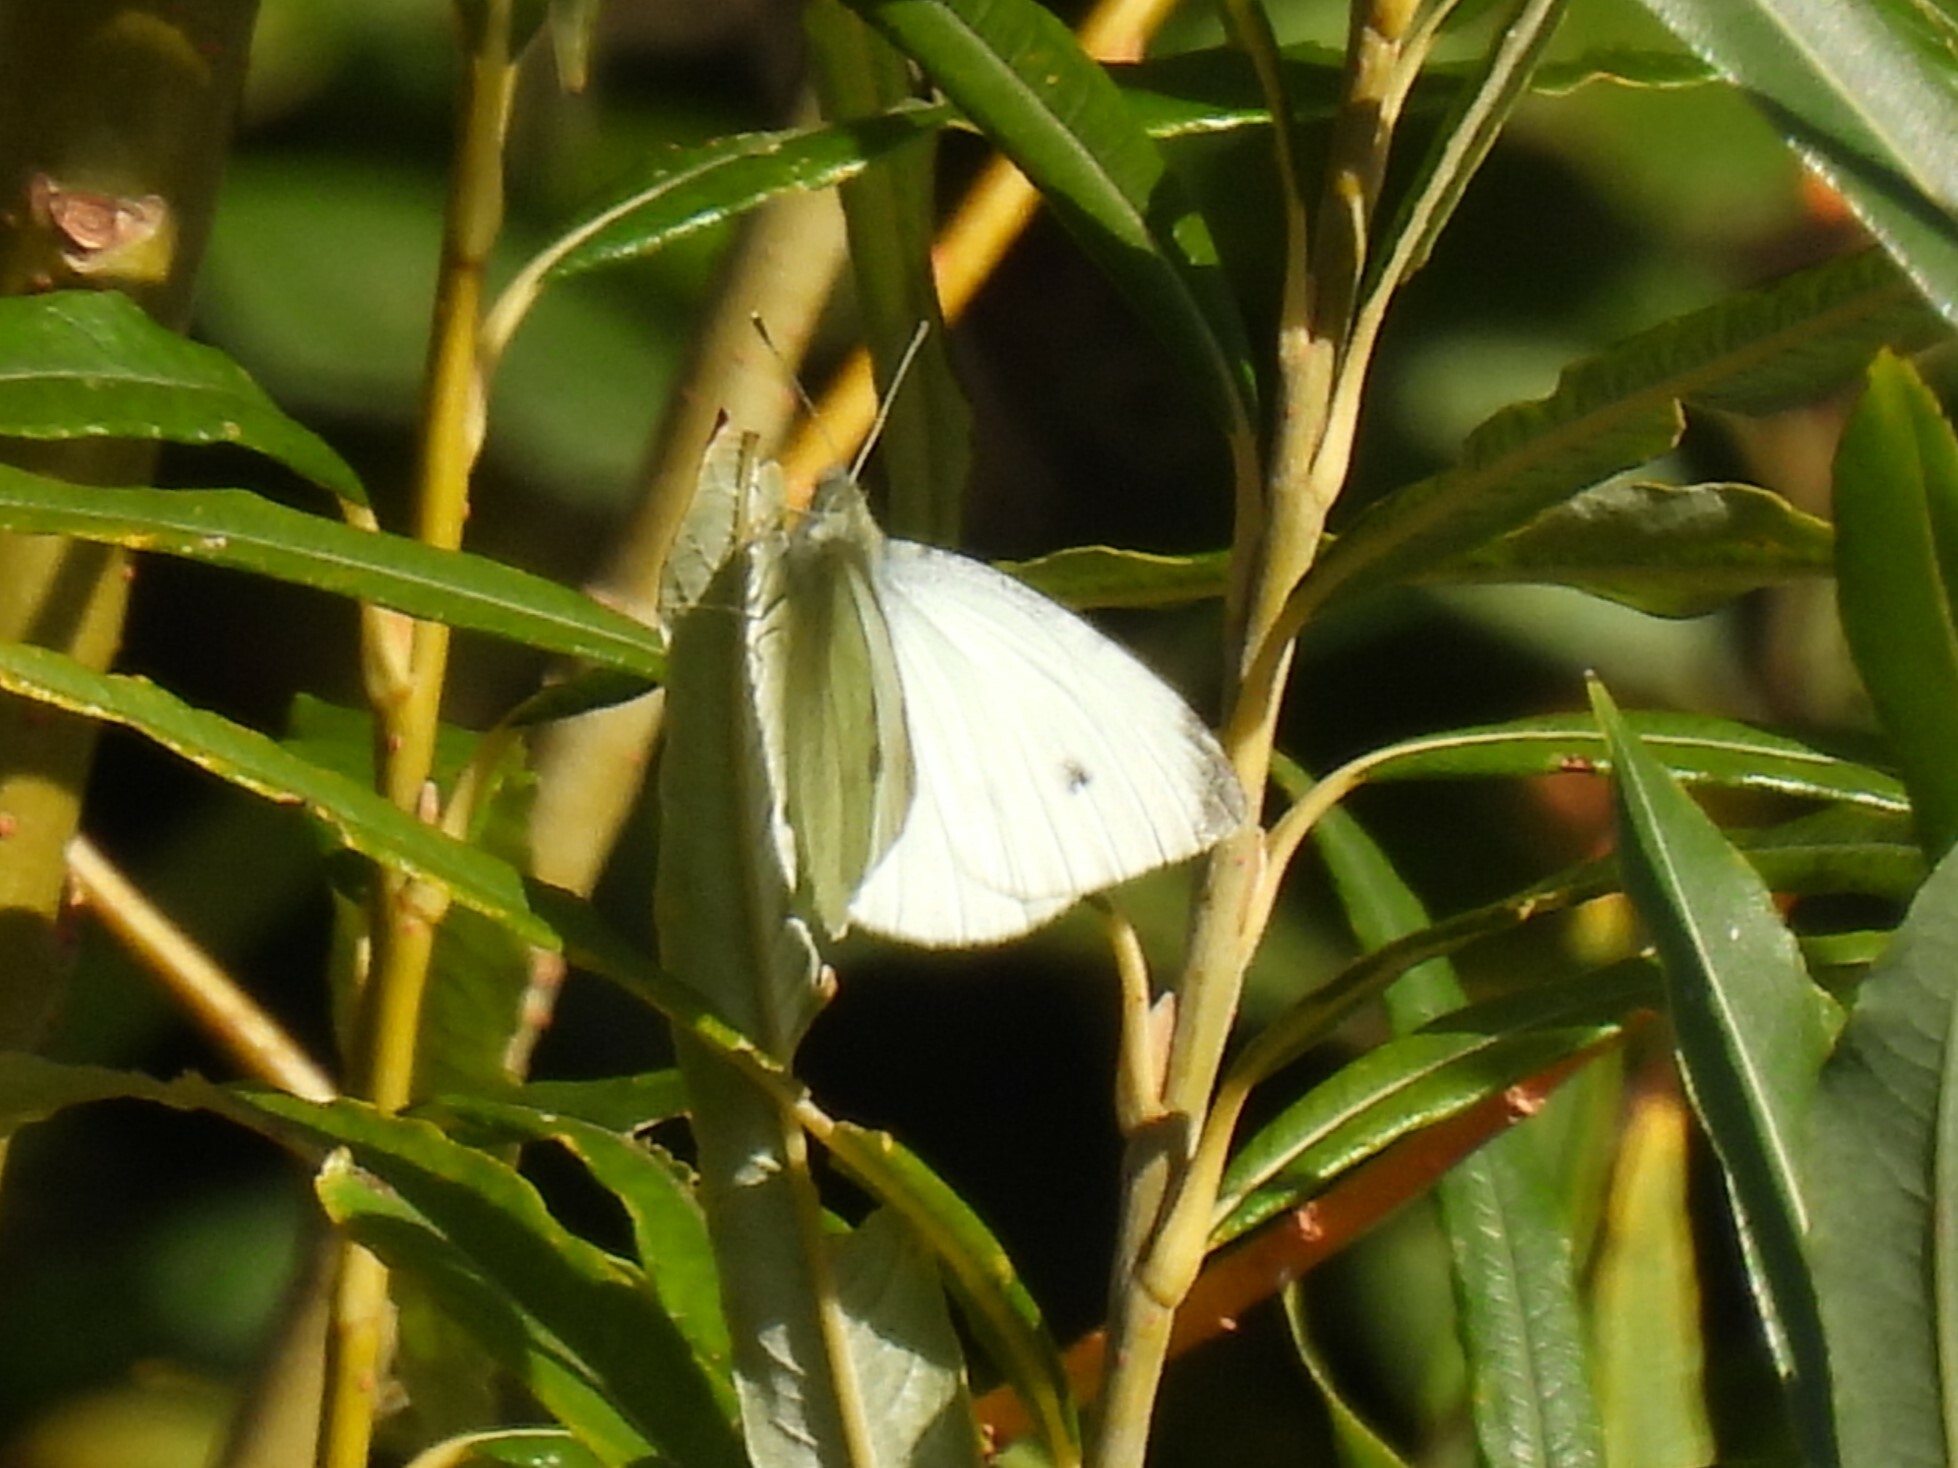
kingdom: Animalia
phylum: Arthropoda
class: Insecta
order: Lepidoptera
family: Pieridae
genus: Pieris
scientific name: Pieris rapae
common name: Small white
